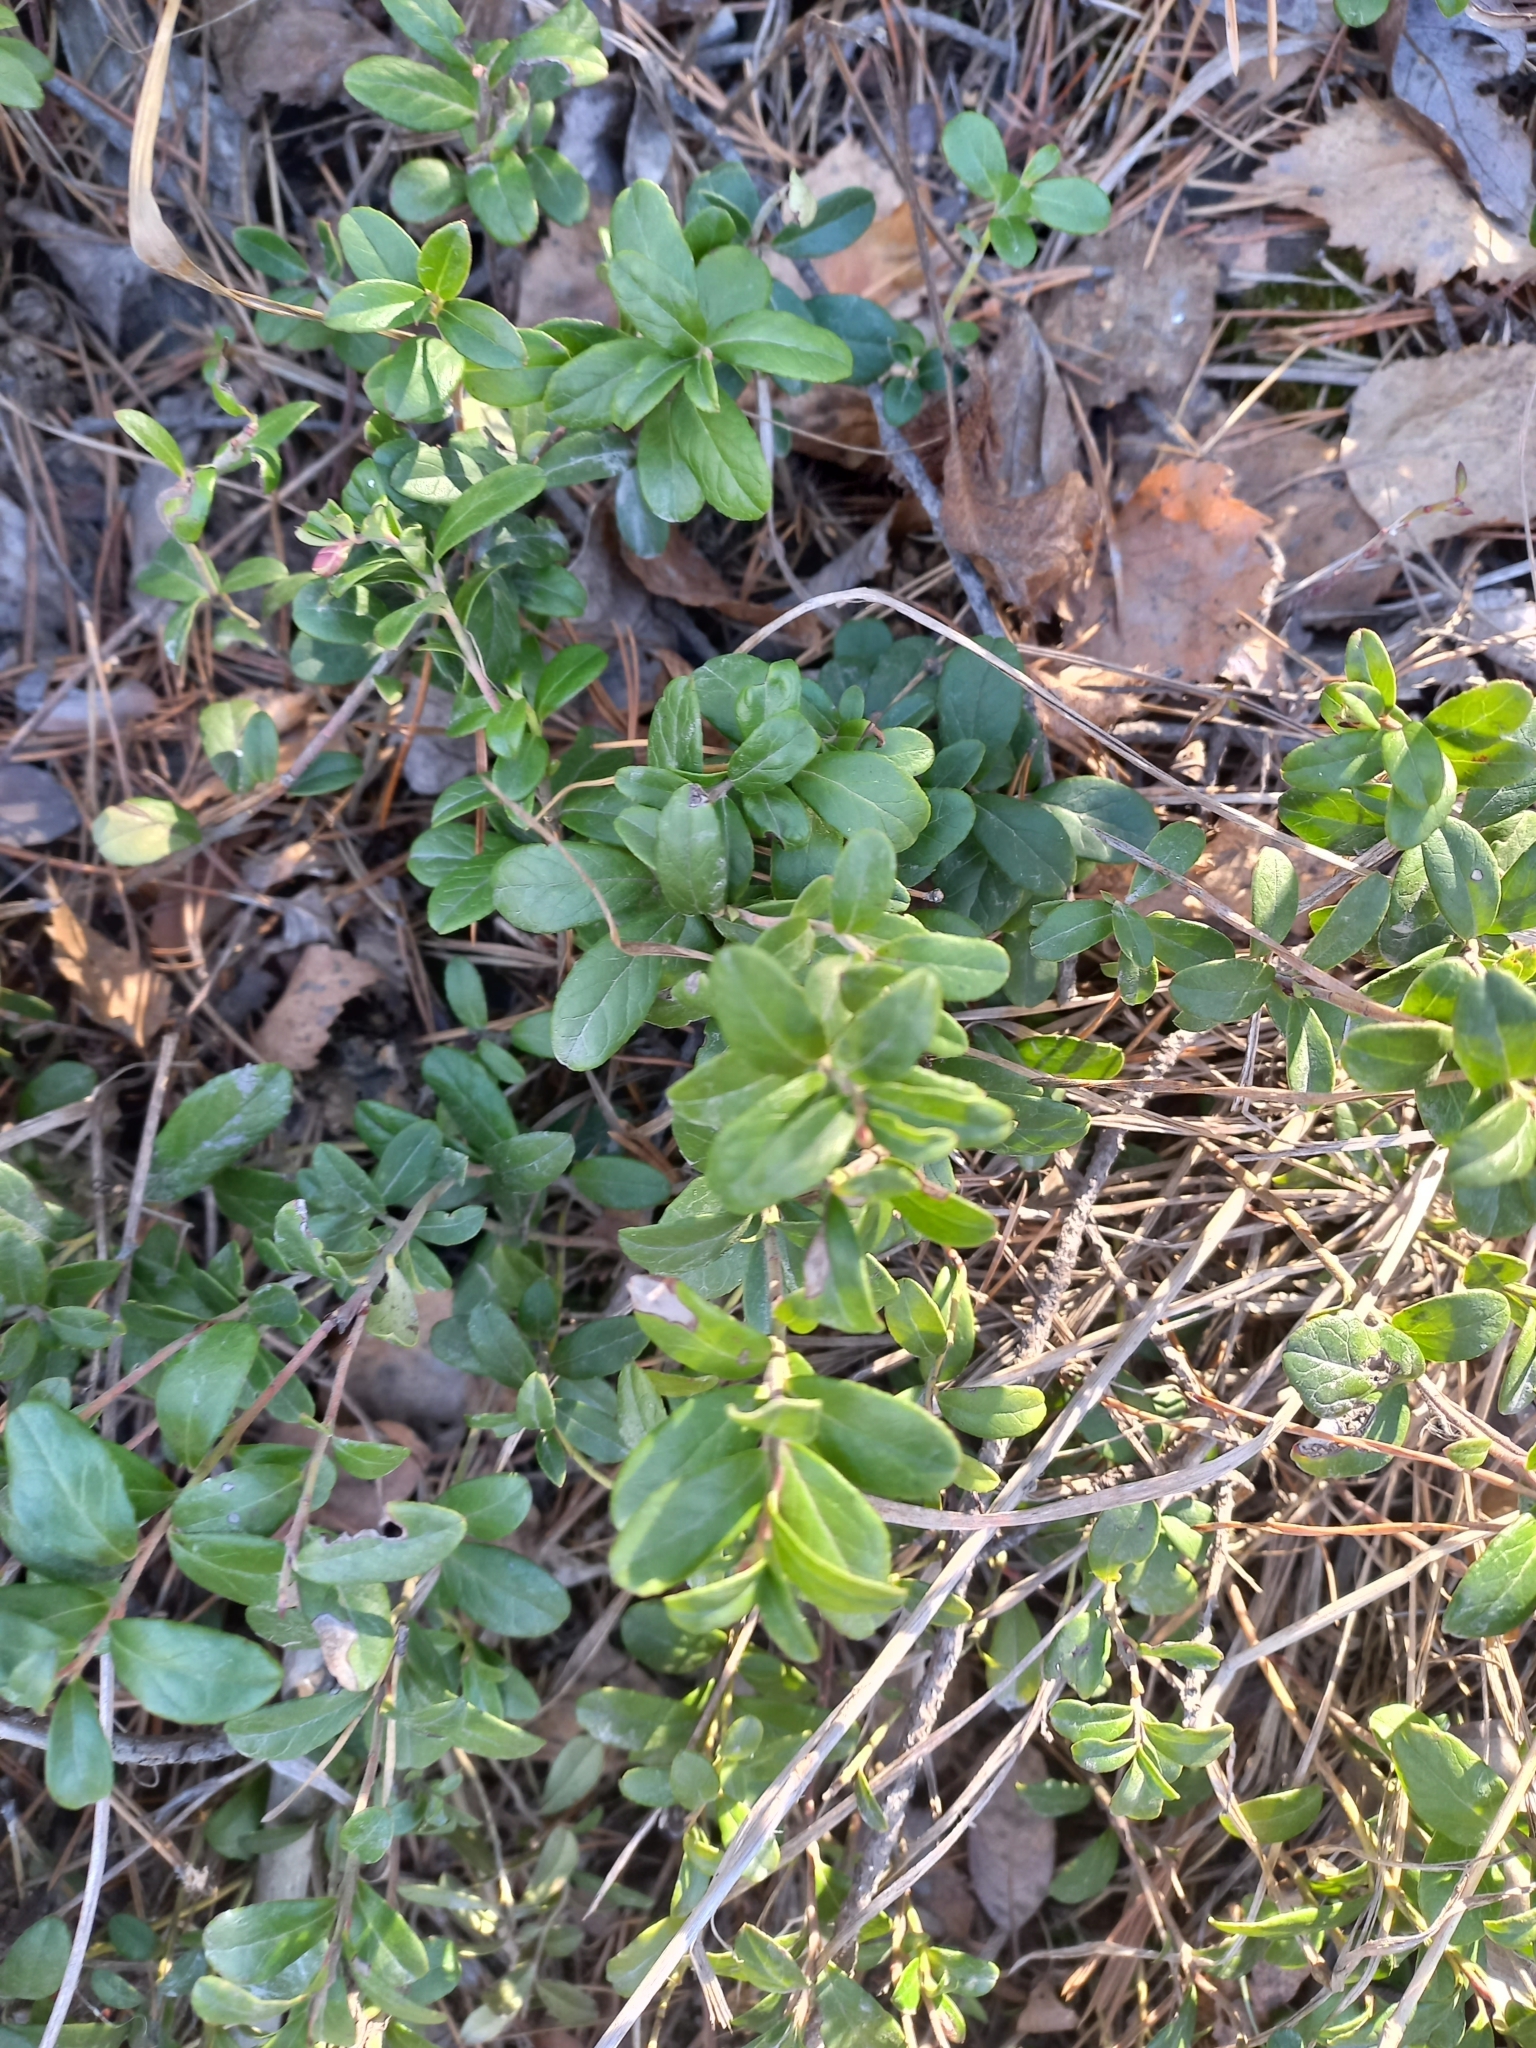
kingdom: Plantae
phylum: Tracheophyta
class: Magnoliopsida
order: Ericales
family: Ericaceae
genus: Vaccinium
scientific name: Vaccinium vitis-idaea
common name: Cowberry
